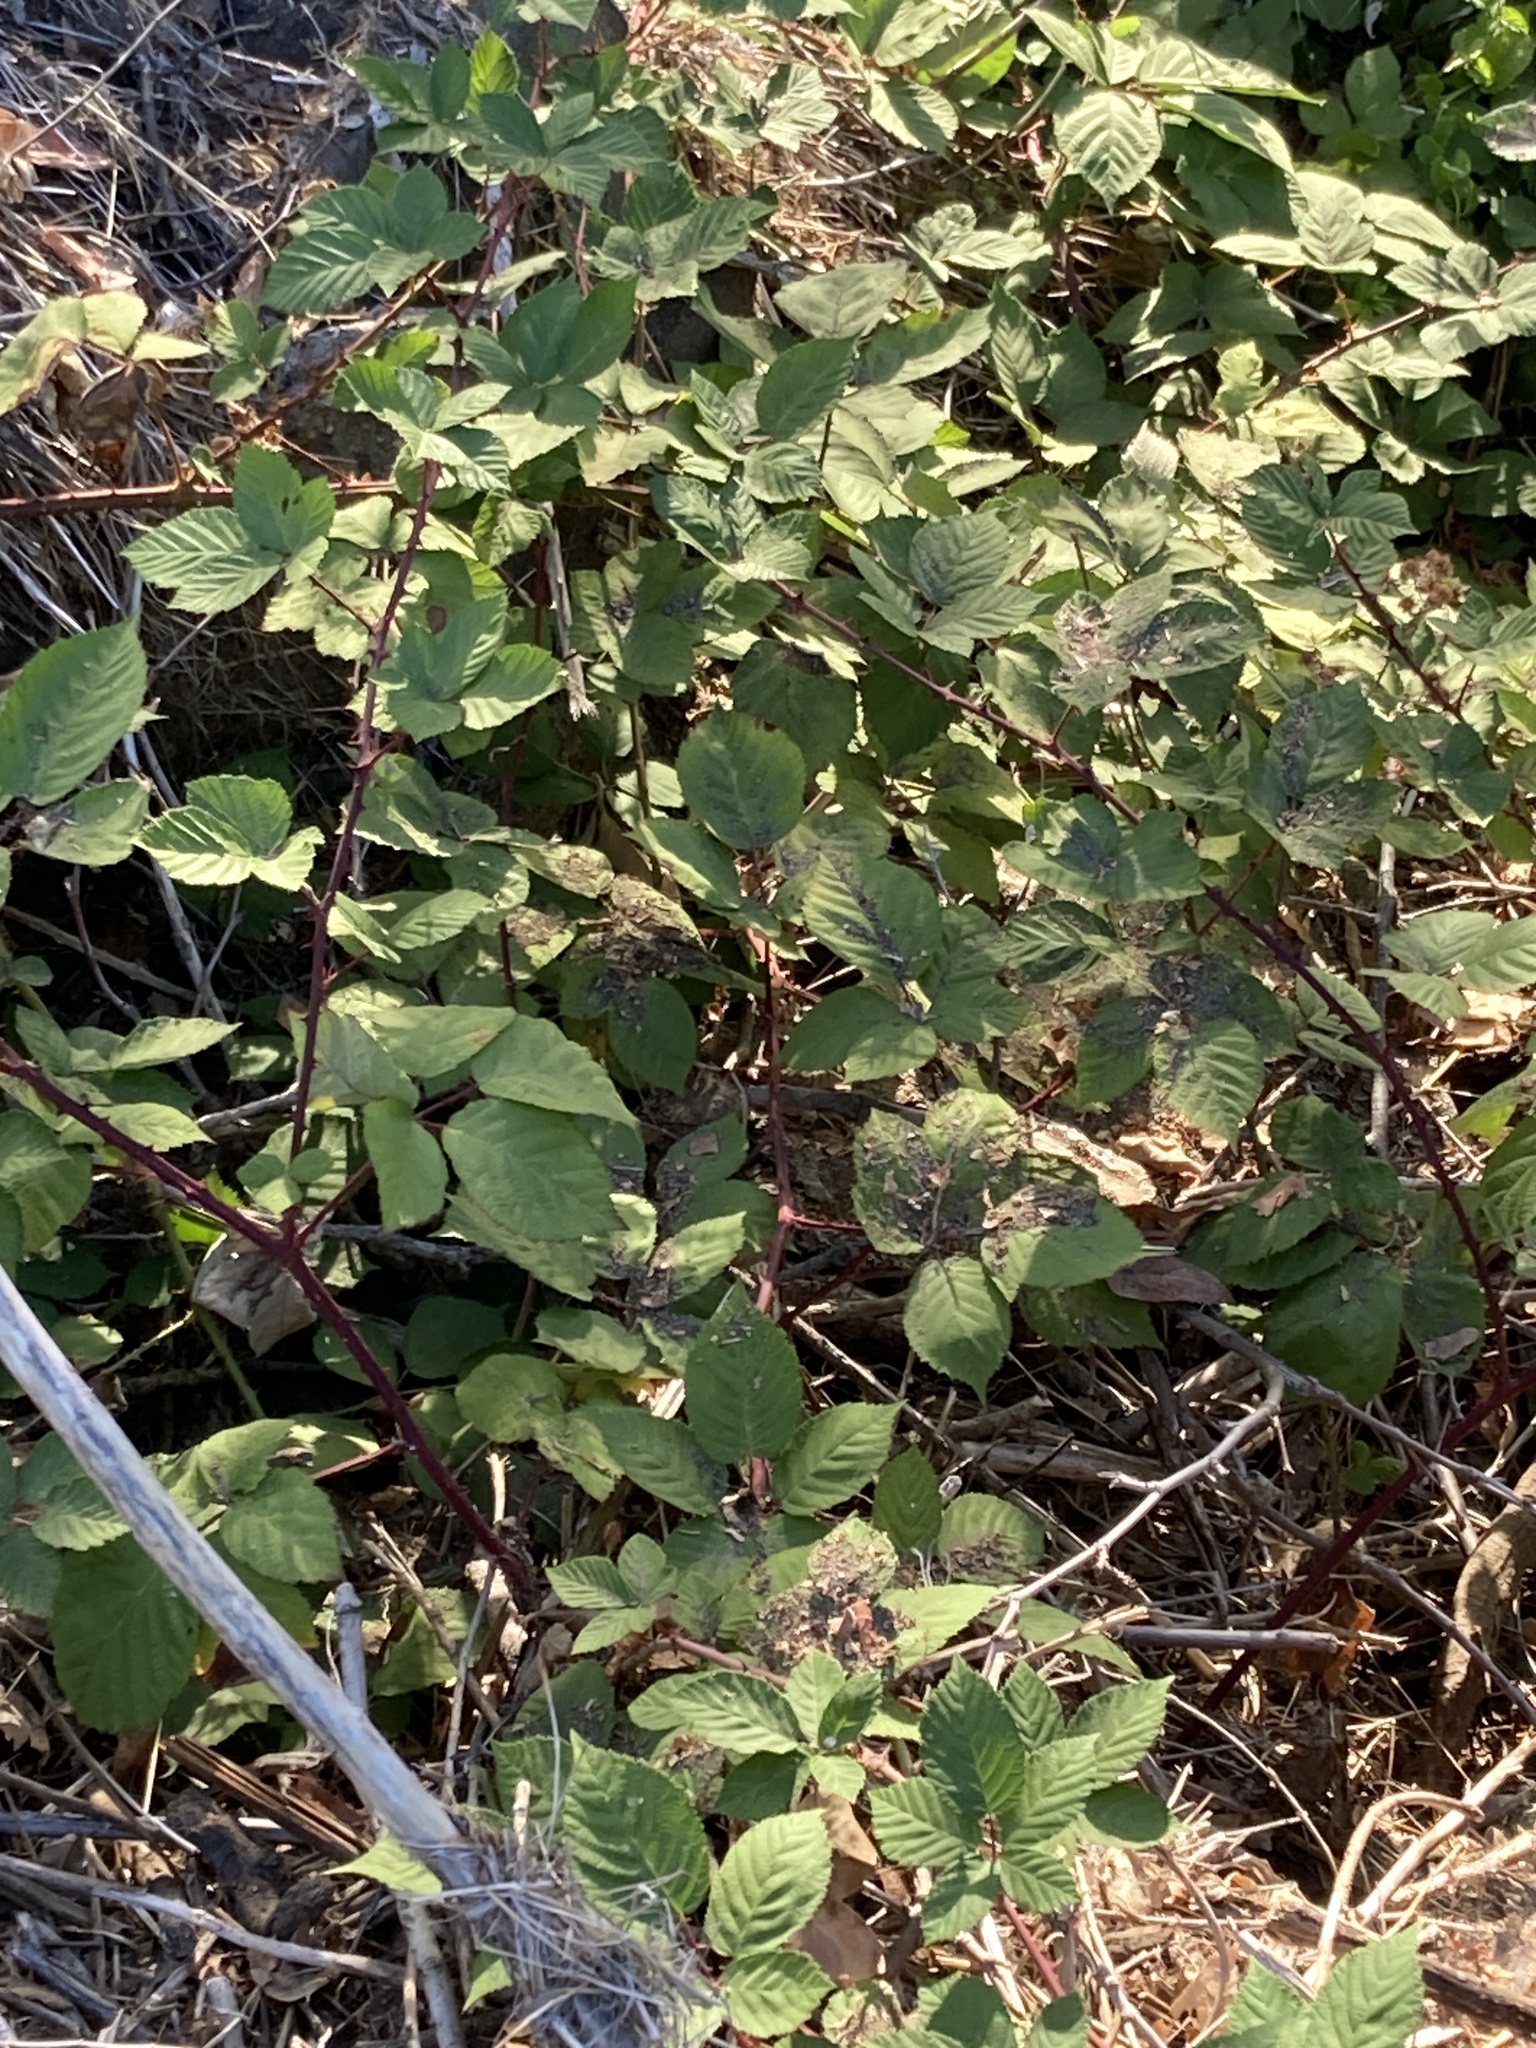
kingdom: Plantae
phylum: Tracheophyta
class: Magnoliopsida
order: Rosales
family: Rosaceae
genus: Rubus
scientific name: Rubus armeniacus
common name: Himalayan blackberry
